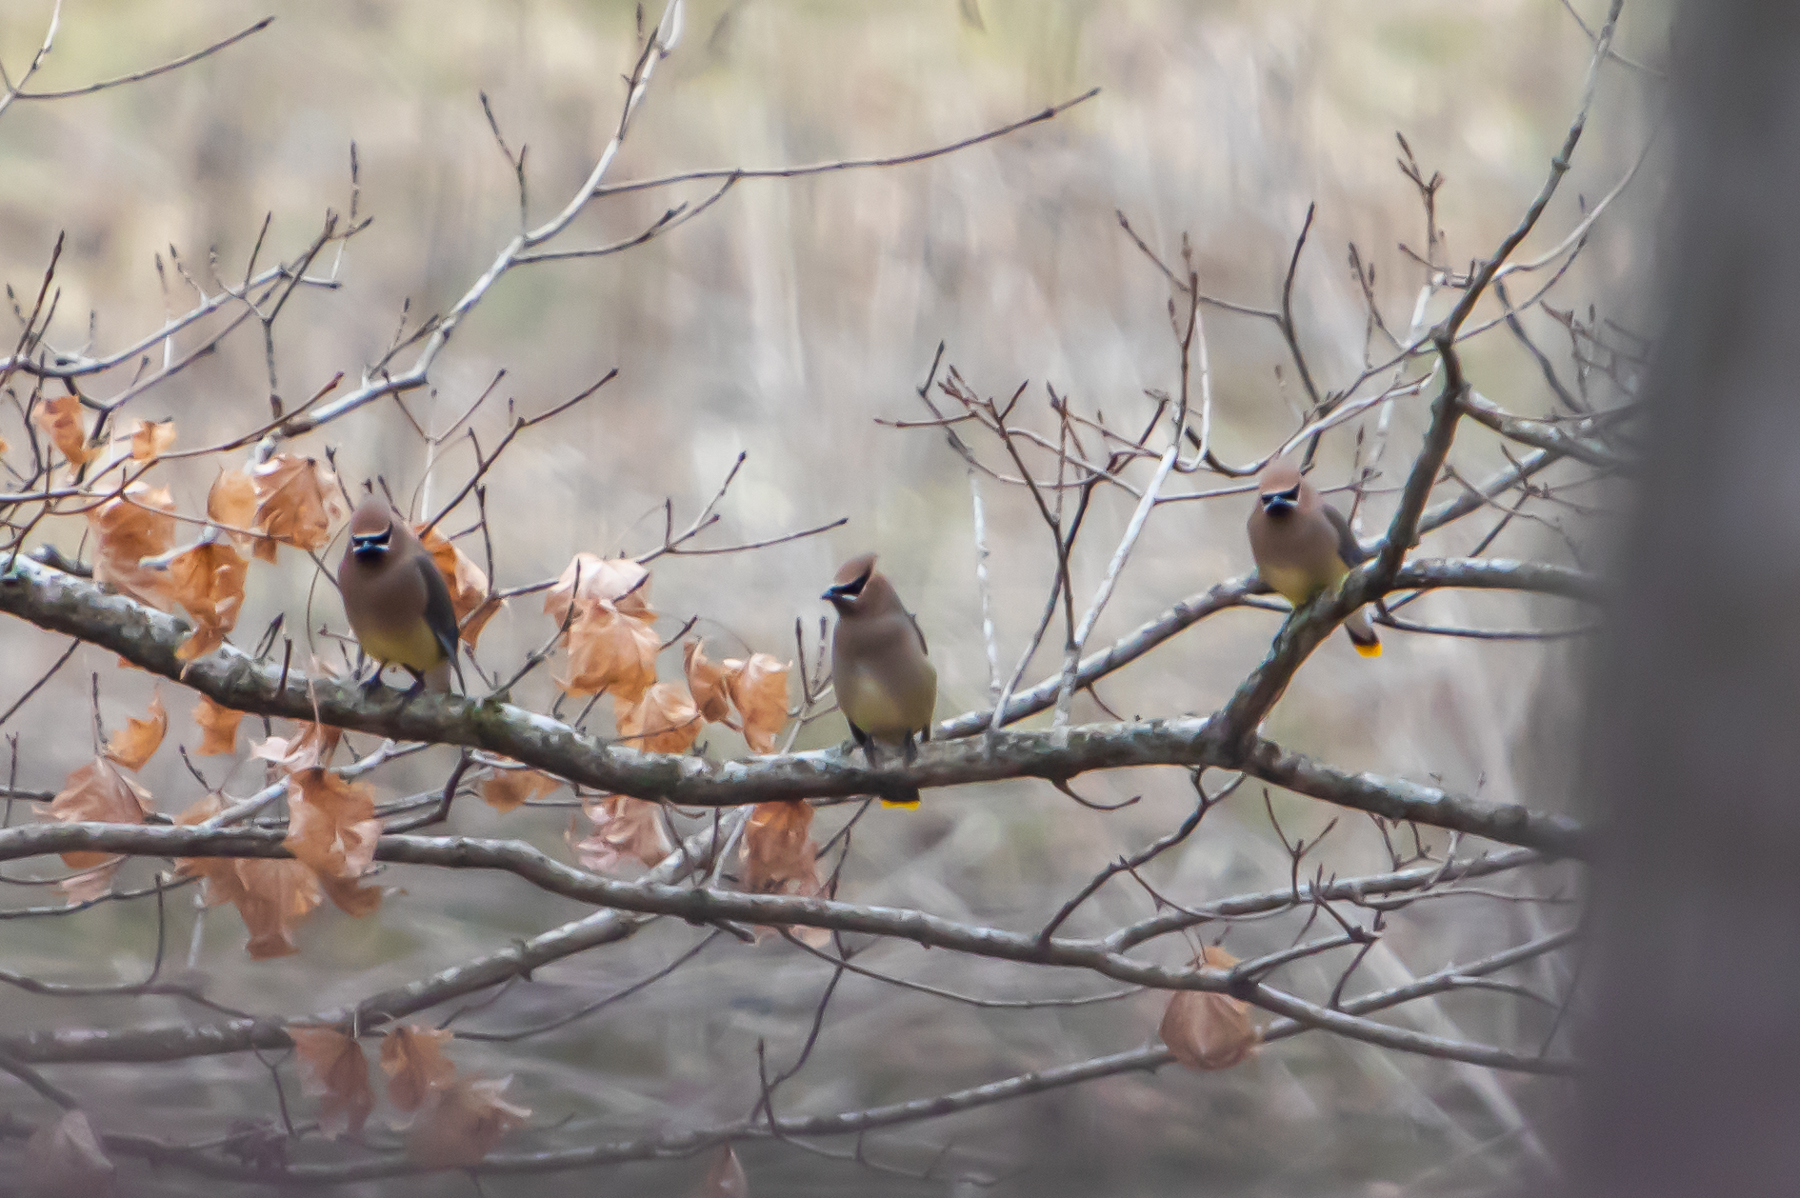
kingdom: Animalia
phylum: Chordata
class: Aves
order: Passeriformes
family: Bombycillidae
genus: Bombycilla
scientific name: Bombycilla cedrorum
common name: Cedar waxwing
